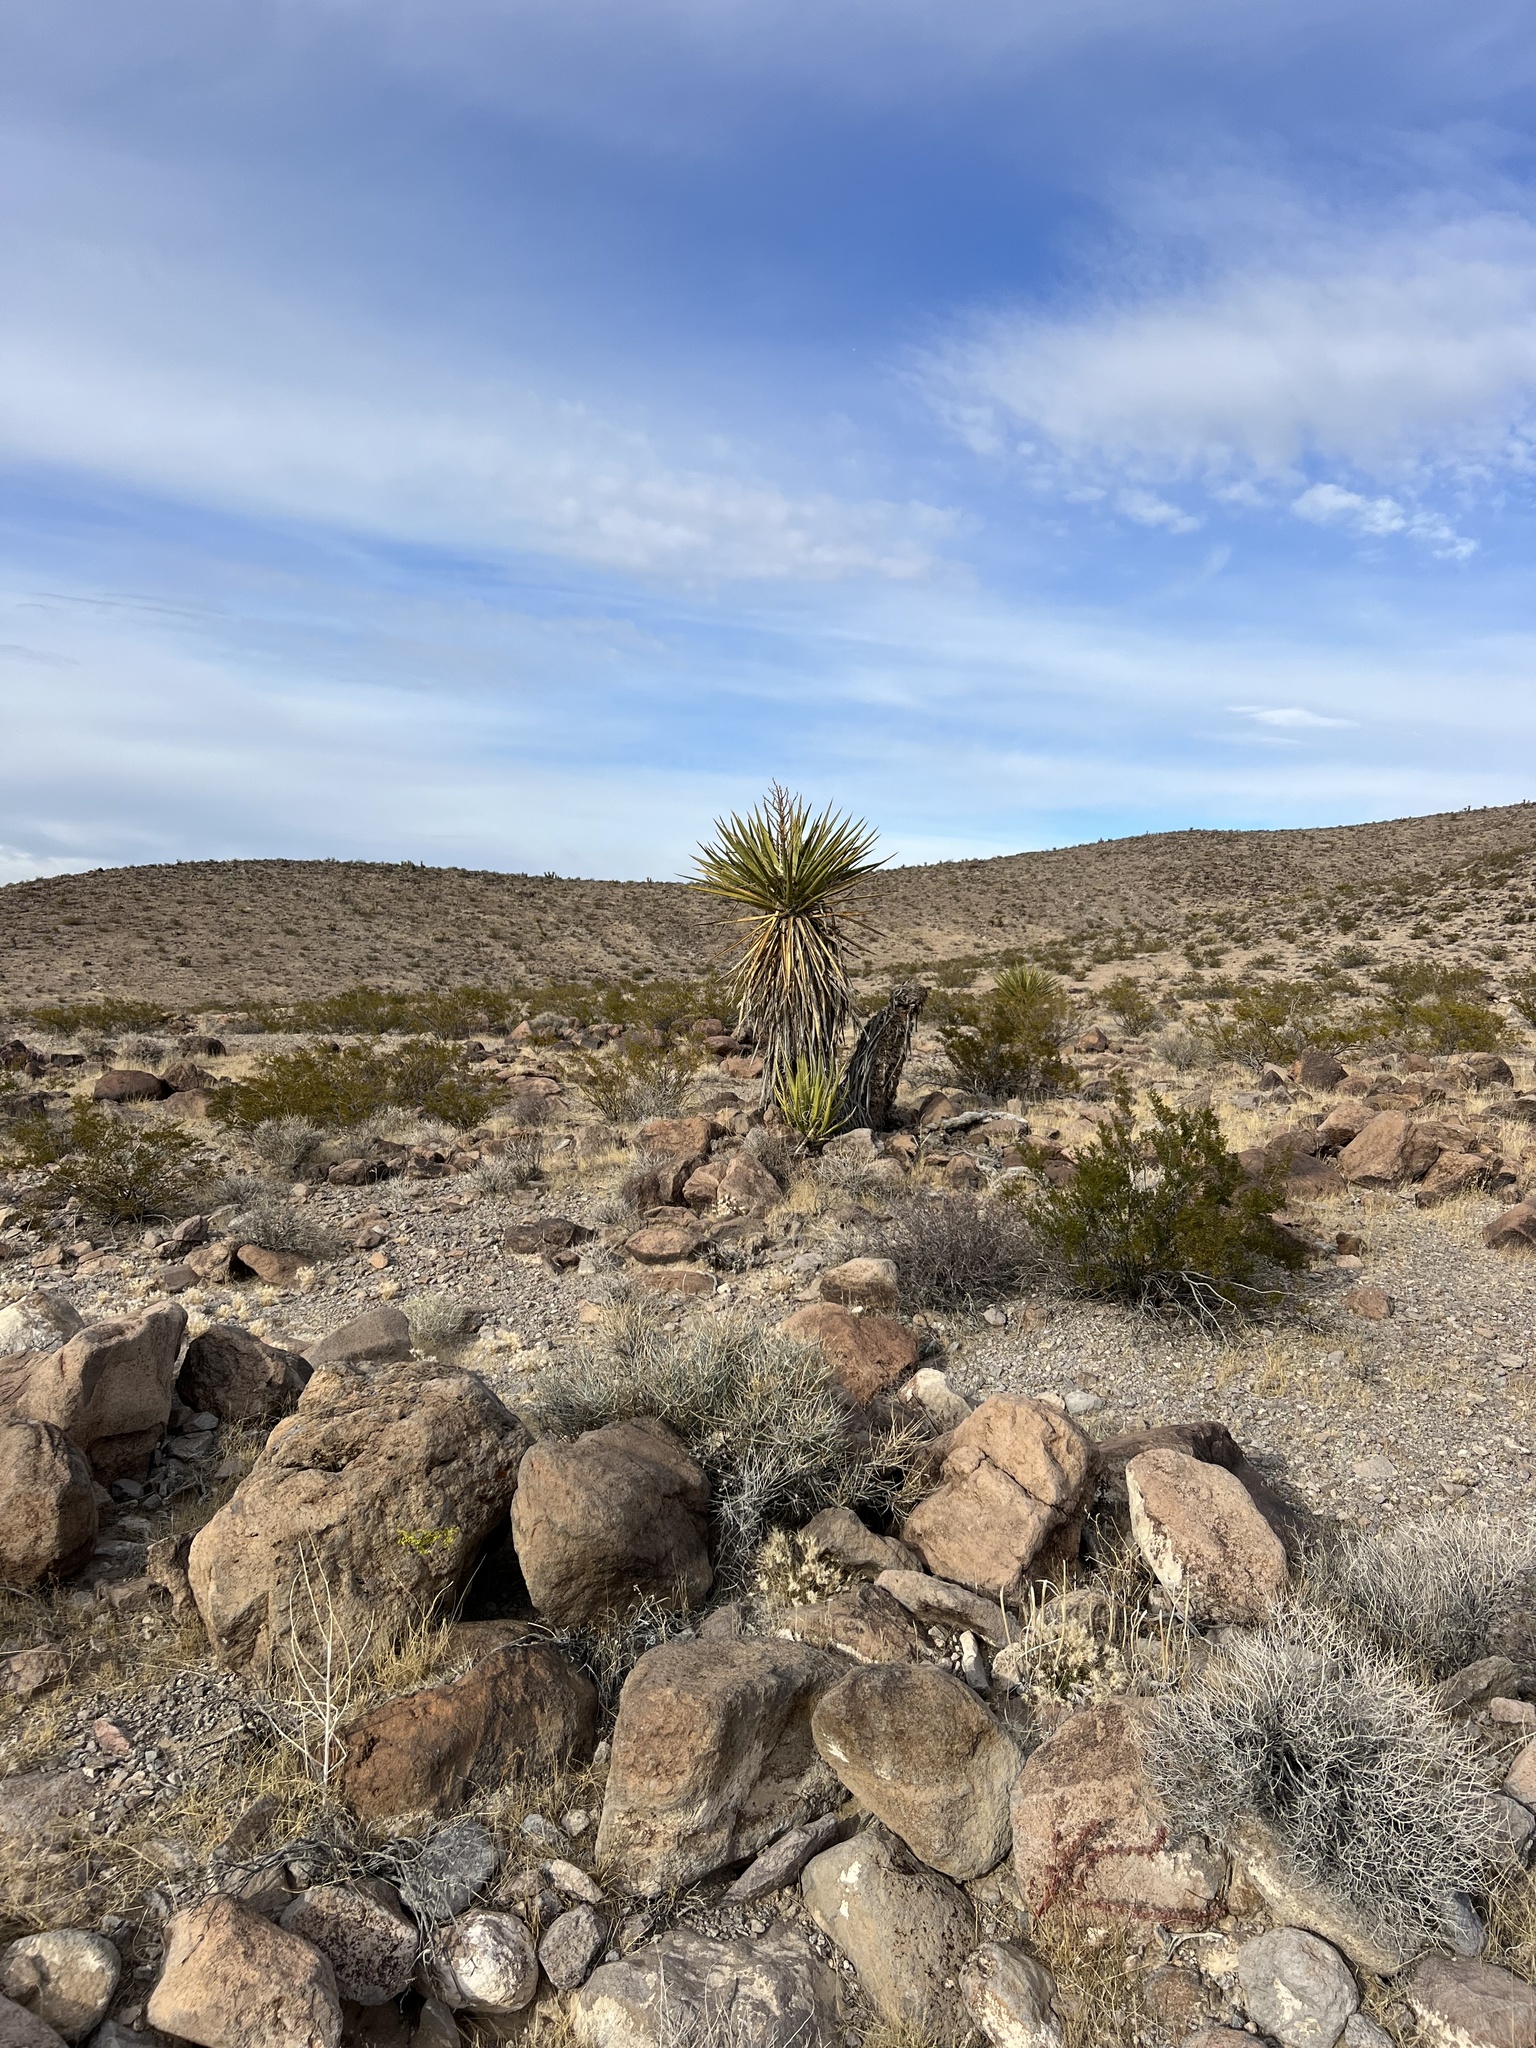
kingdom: Plantae
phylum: Tracheophyta
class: Liliopsida
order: Asparagales
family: Asparagaceae
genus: Yucca
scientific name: Yucca schidigera
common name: Mojave yucca
